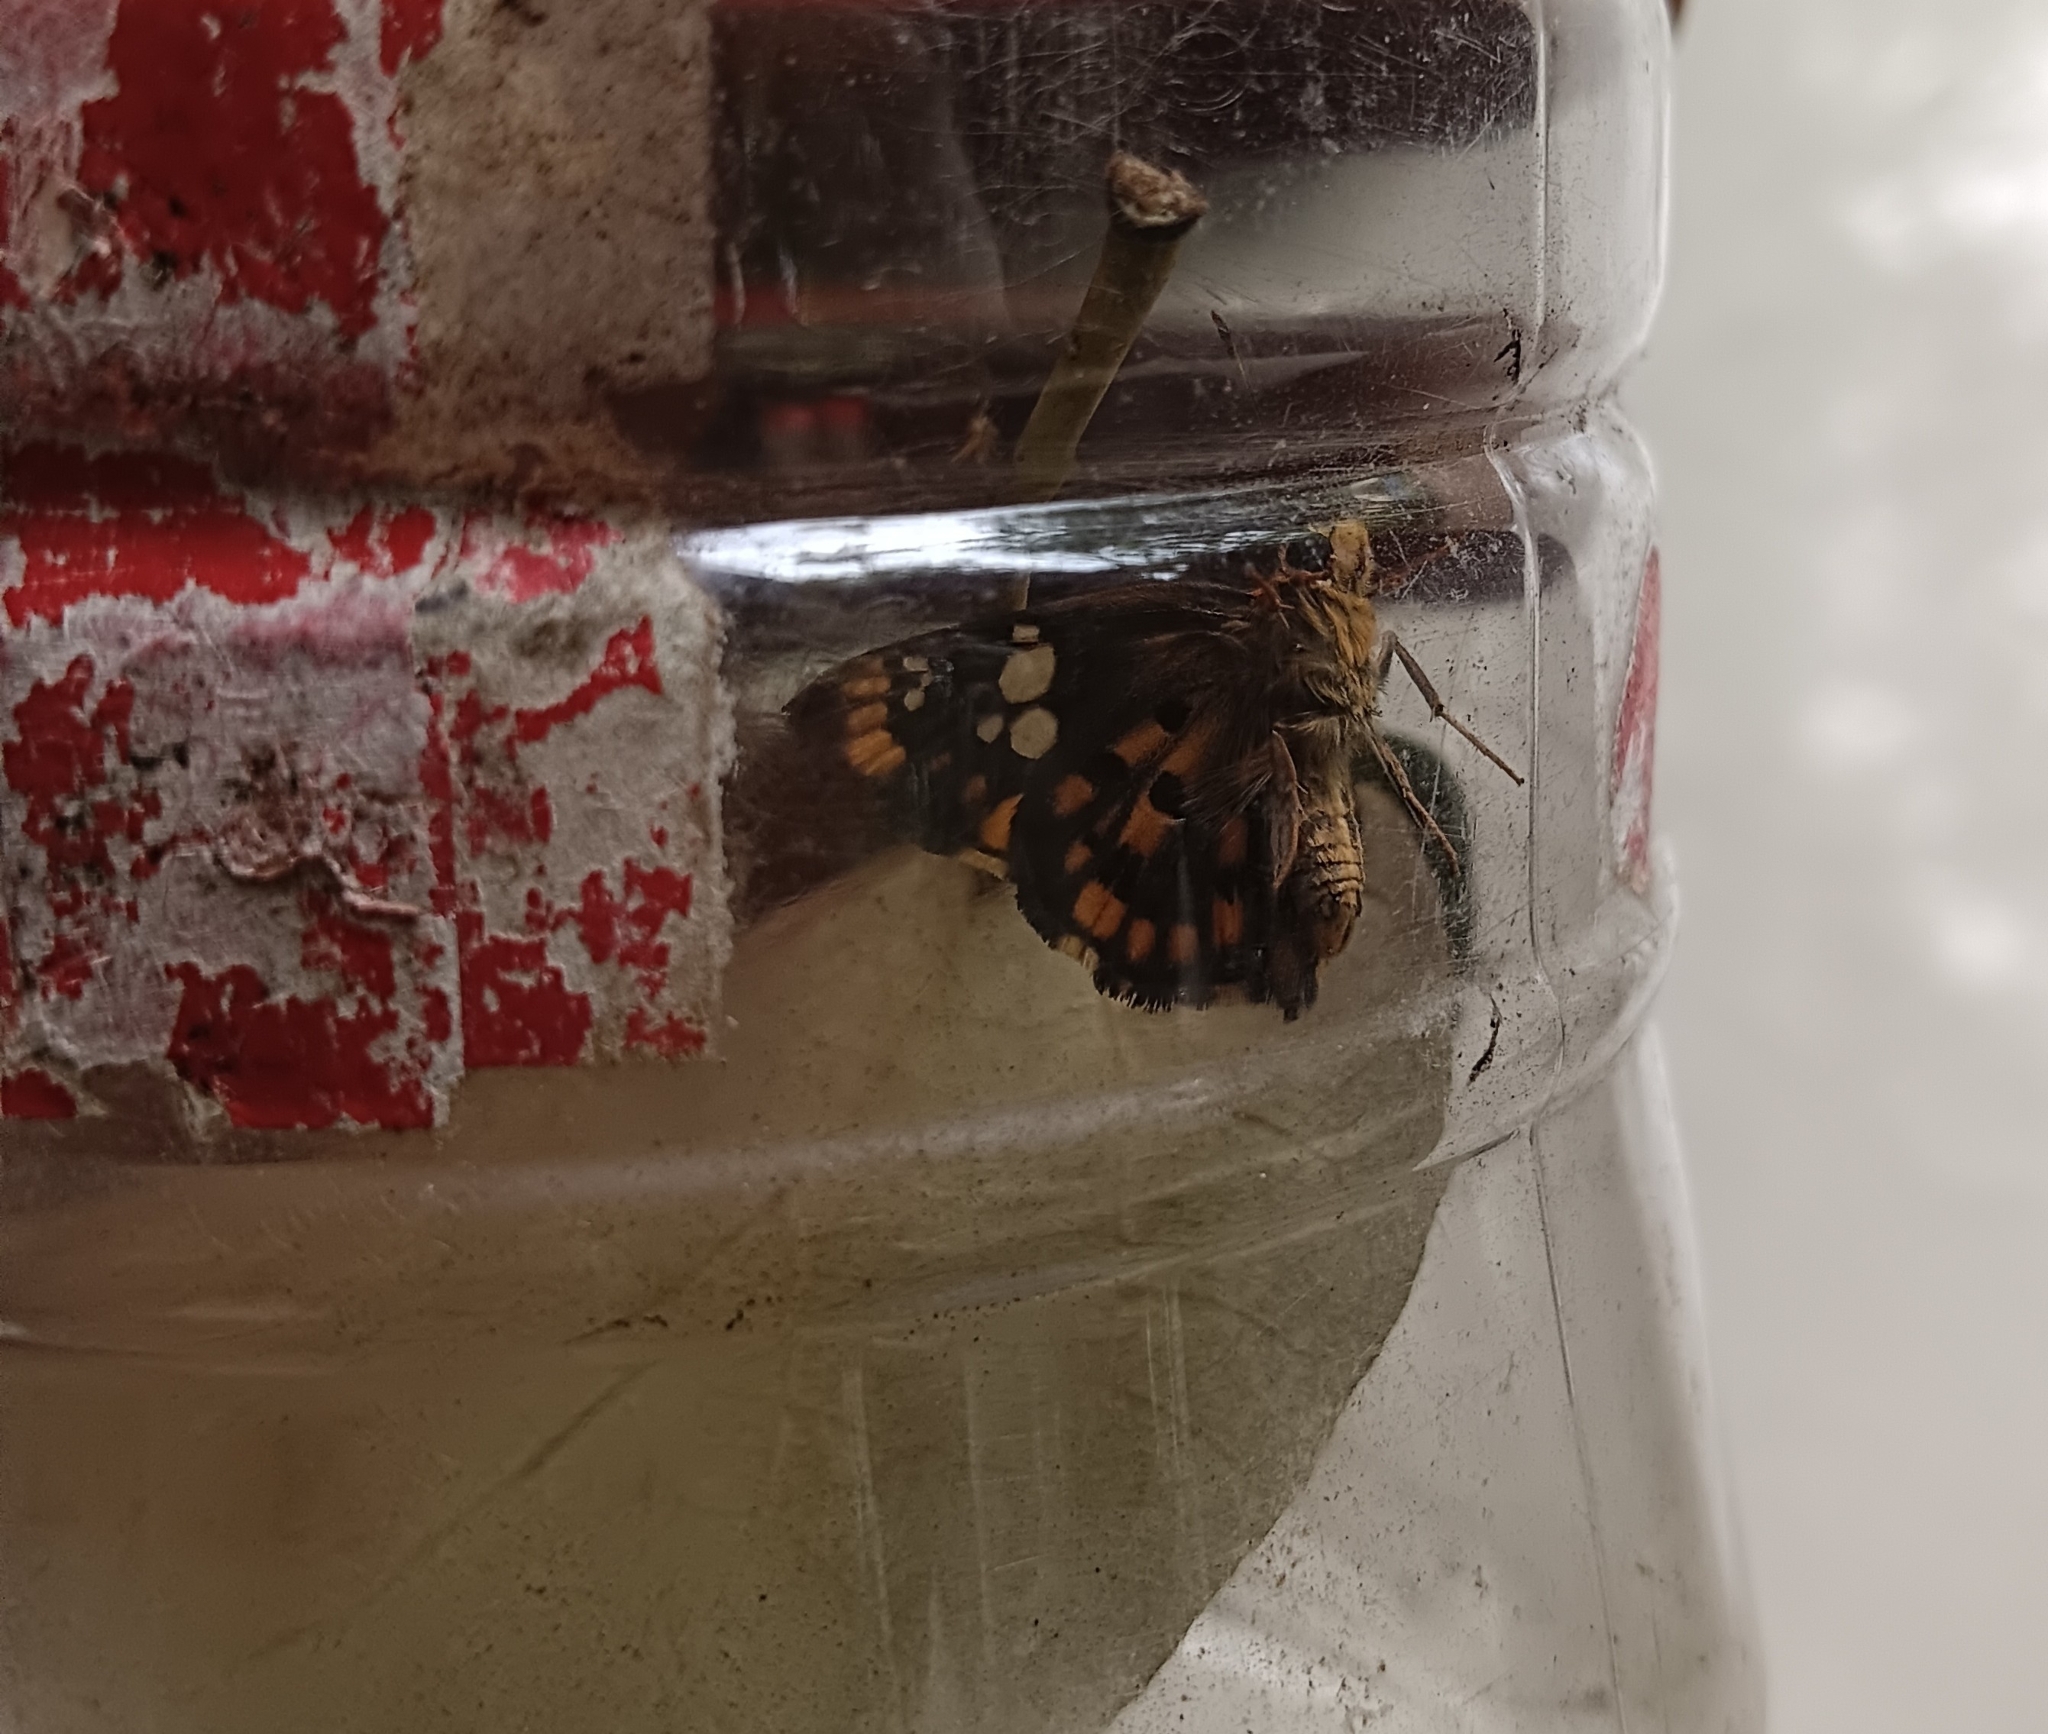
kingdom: Animalia
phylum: Arthropoda
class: Insecta
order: Lepidoptera
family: Hesperiidae
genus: Coladenia
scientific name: Coladenia
